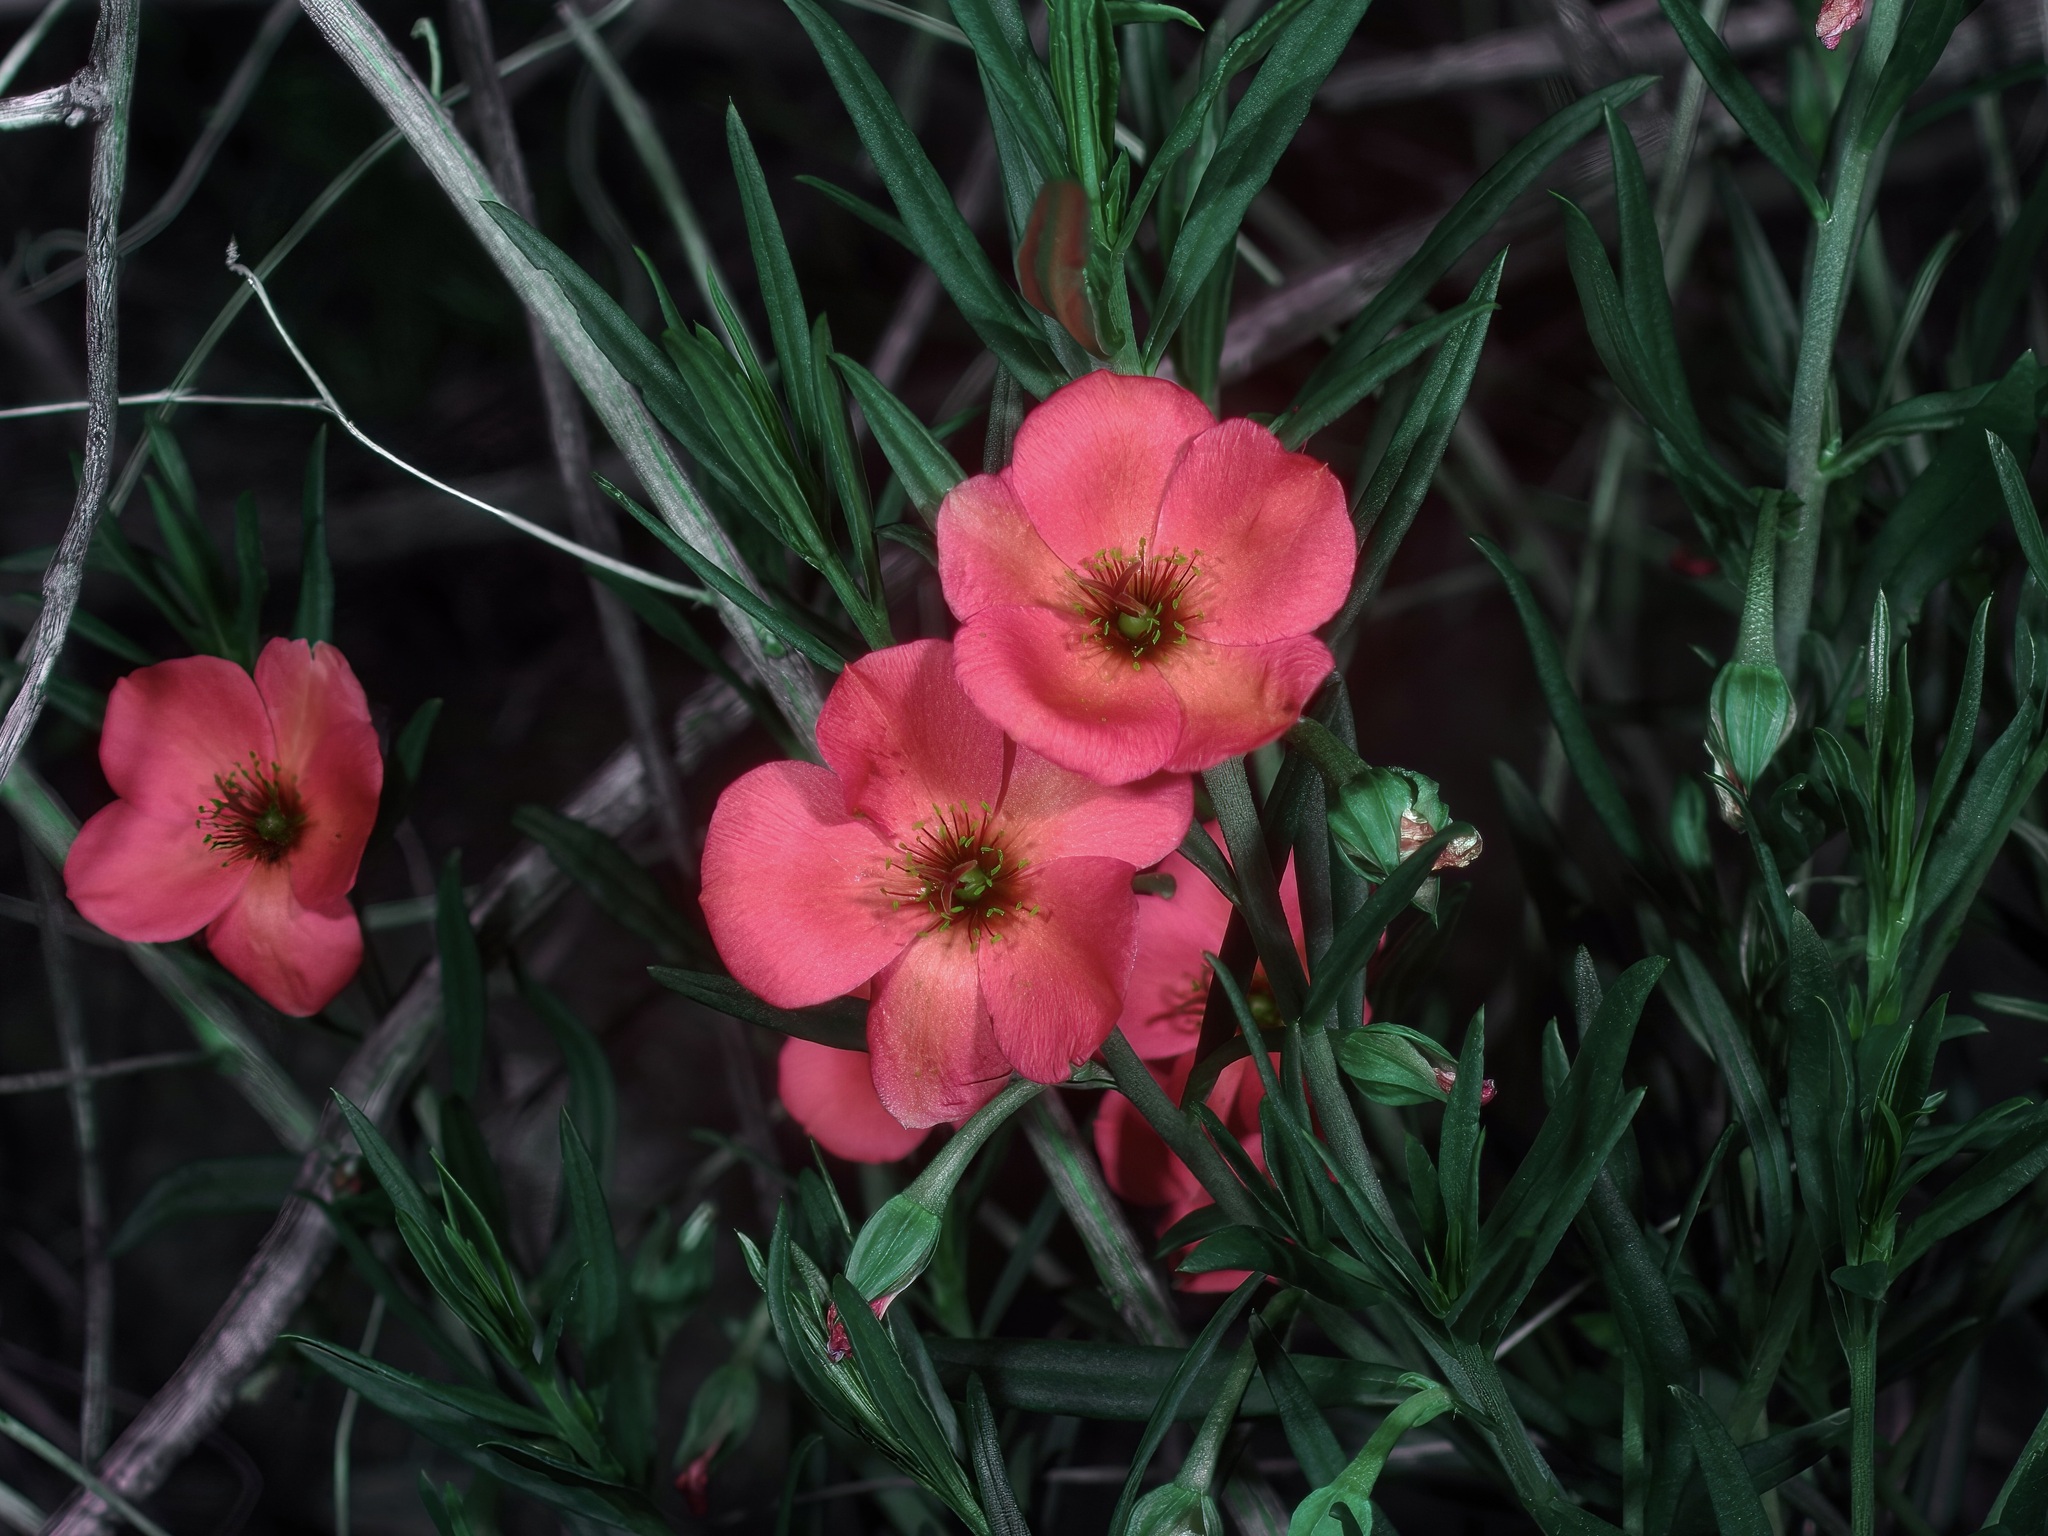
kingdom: Plantae
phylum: Tracheophyta
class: Magnoliopsida
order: Caryophyllales
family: Montiaceae
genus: Phemeranthus
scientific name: Phemeranthus aurantiacus
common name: Orange fameflower
